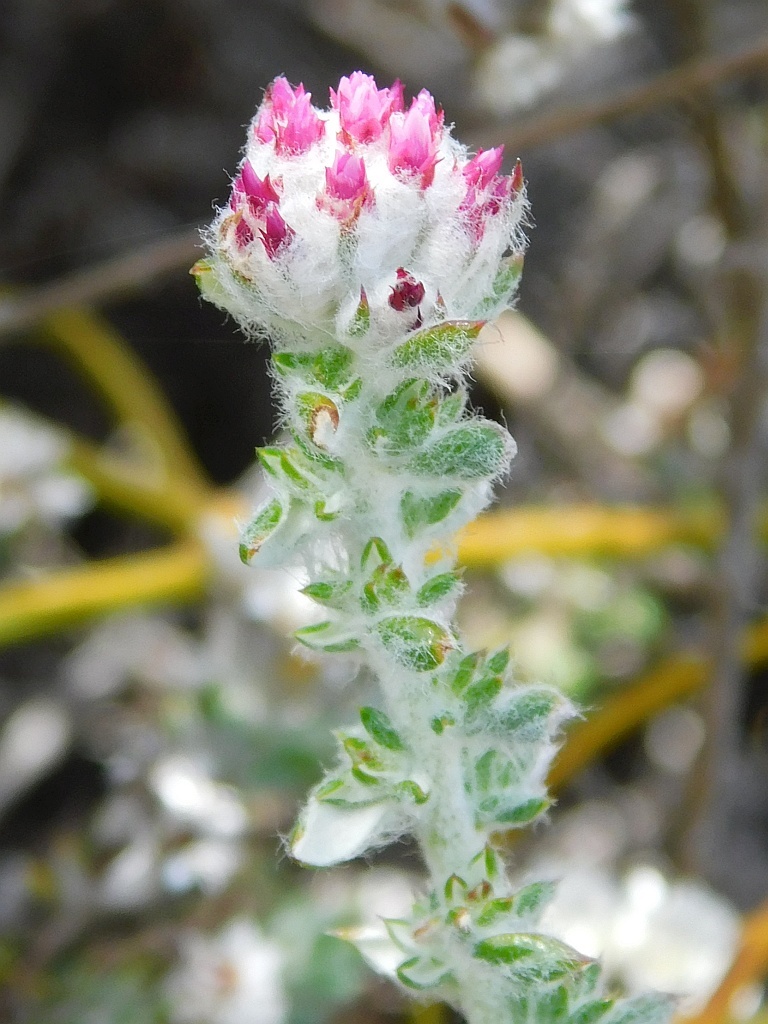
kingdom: Plantae
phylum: Tracheophyta
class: Magnoliopsida
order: Asterales
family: Asteraceae
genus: Metalasia
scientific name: Metalasia cephalotes
